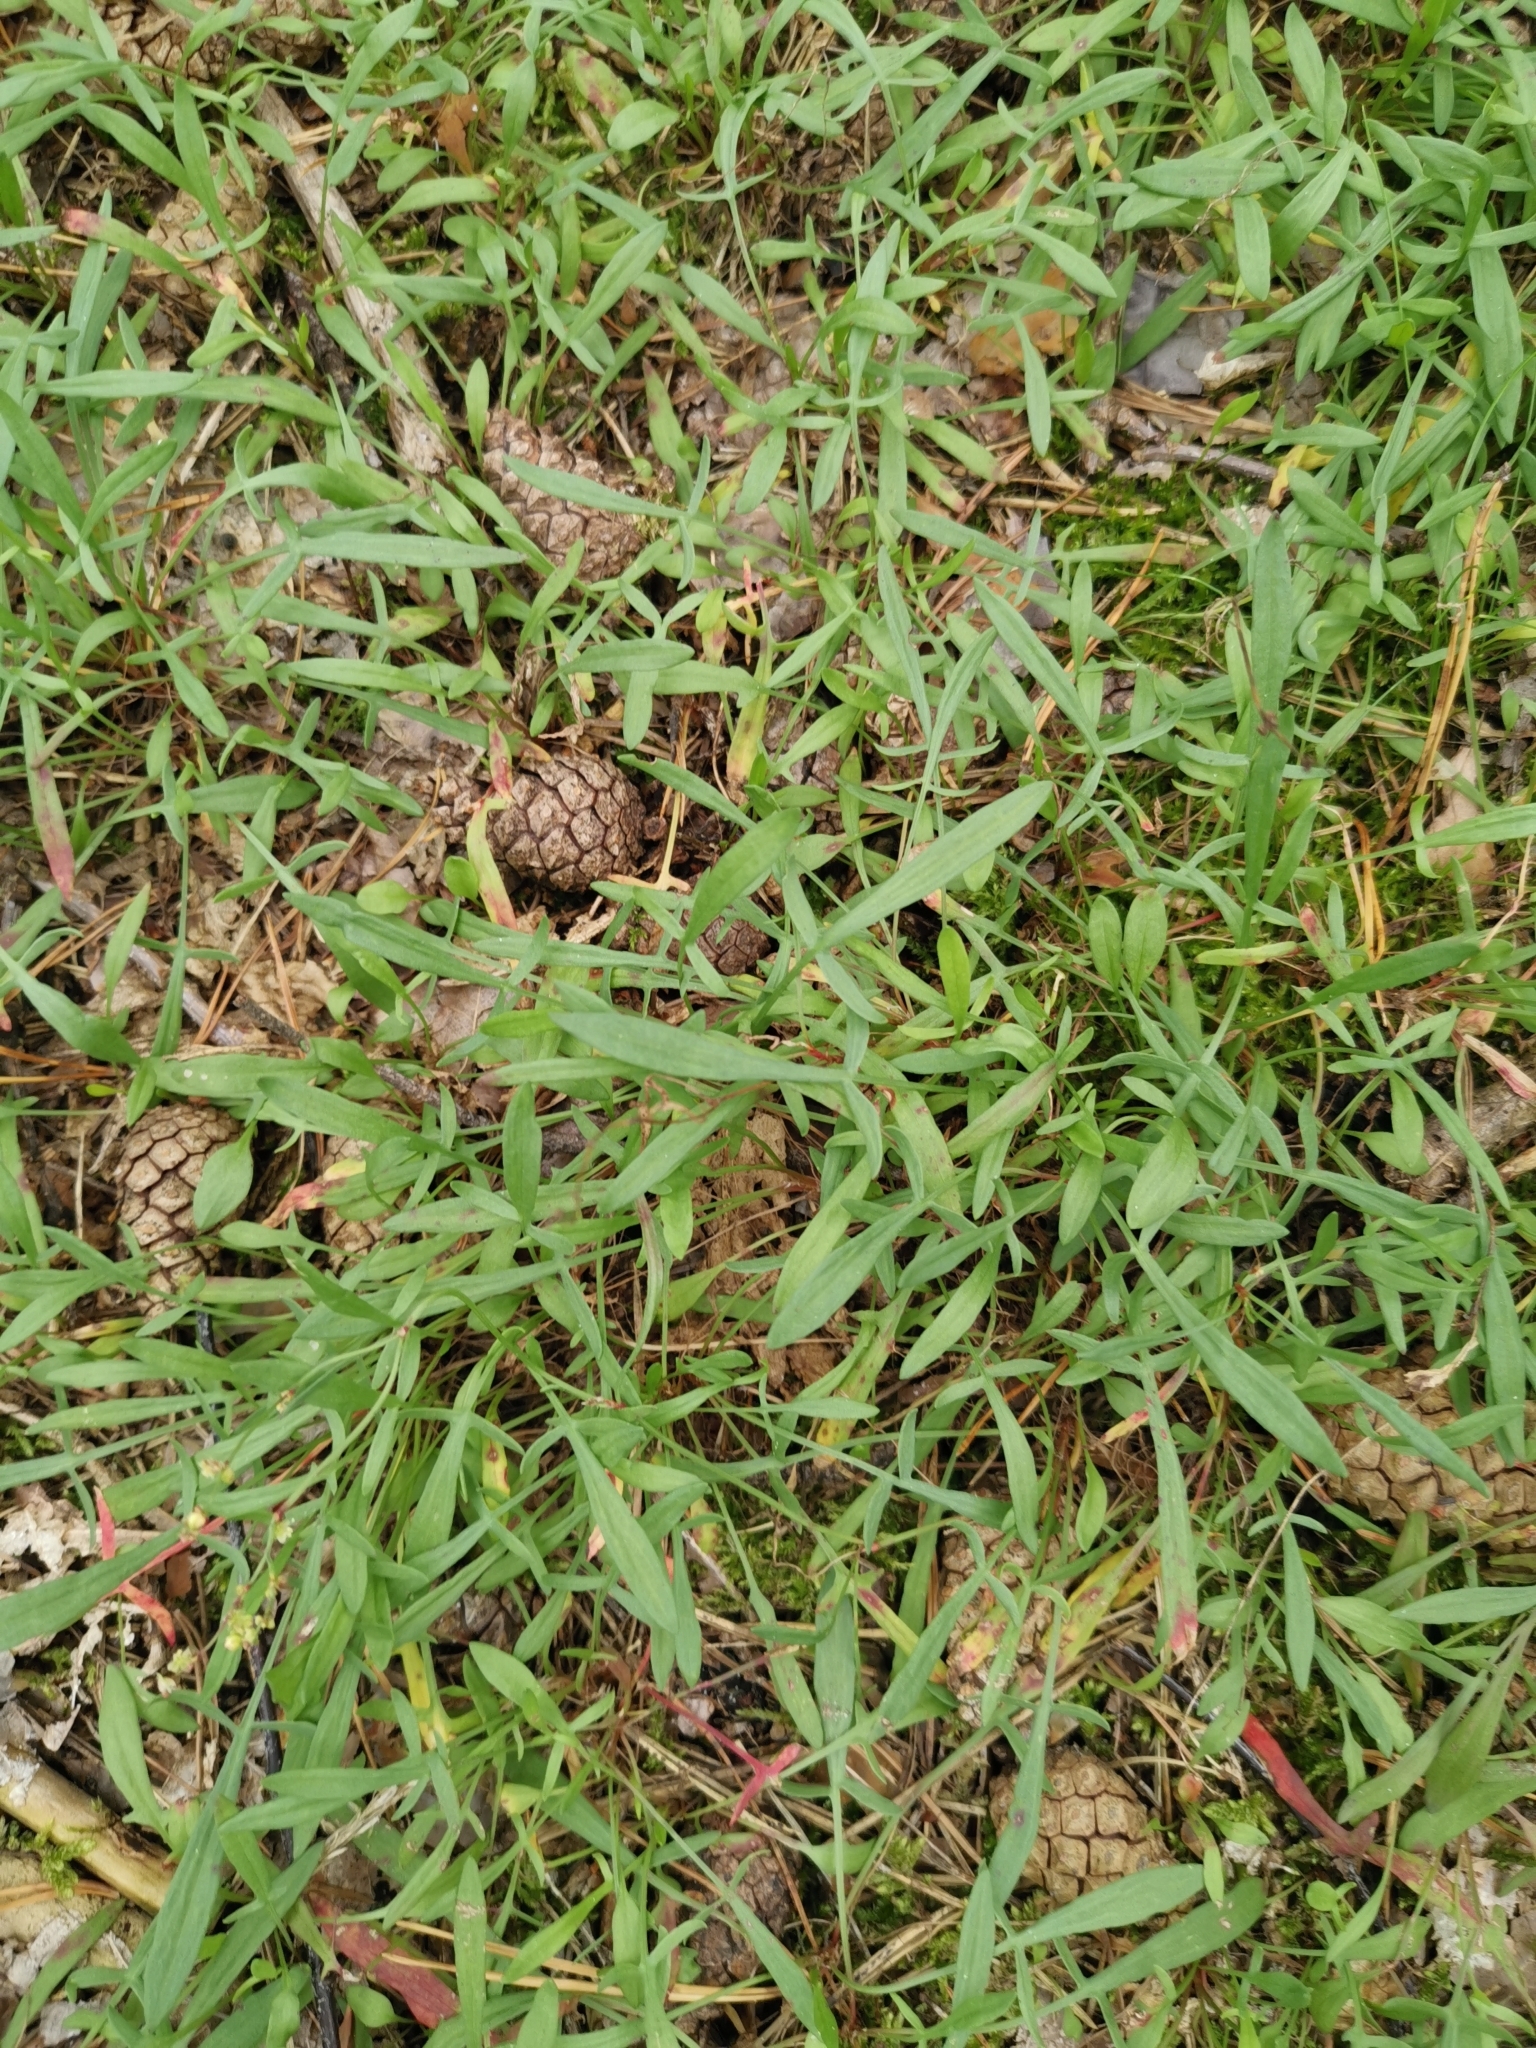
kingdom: Plantae
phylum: Tracheophyta
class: Magnoliopsida
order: Caryophyllales
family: Polygonaceae
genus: Rumex
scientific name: Rumex acetosella
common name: Common sheep sorrel
